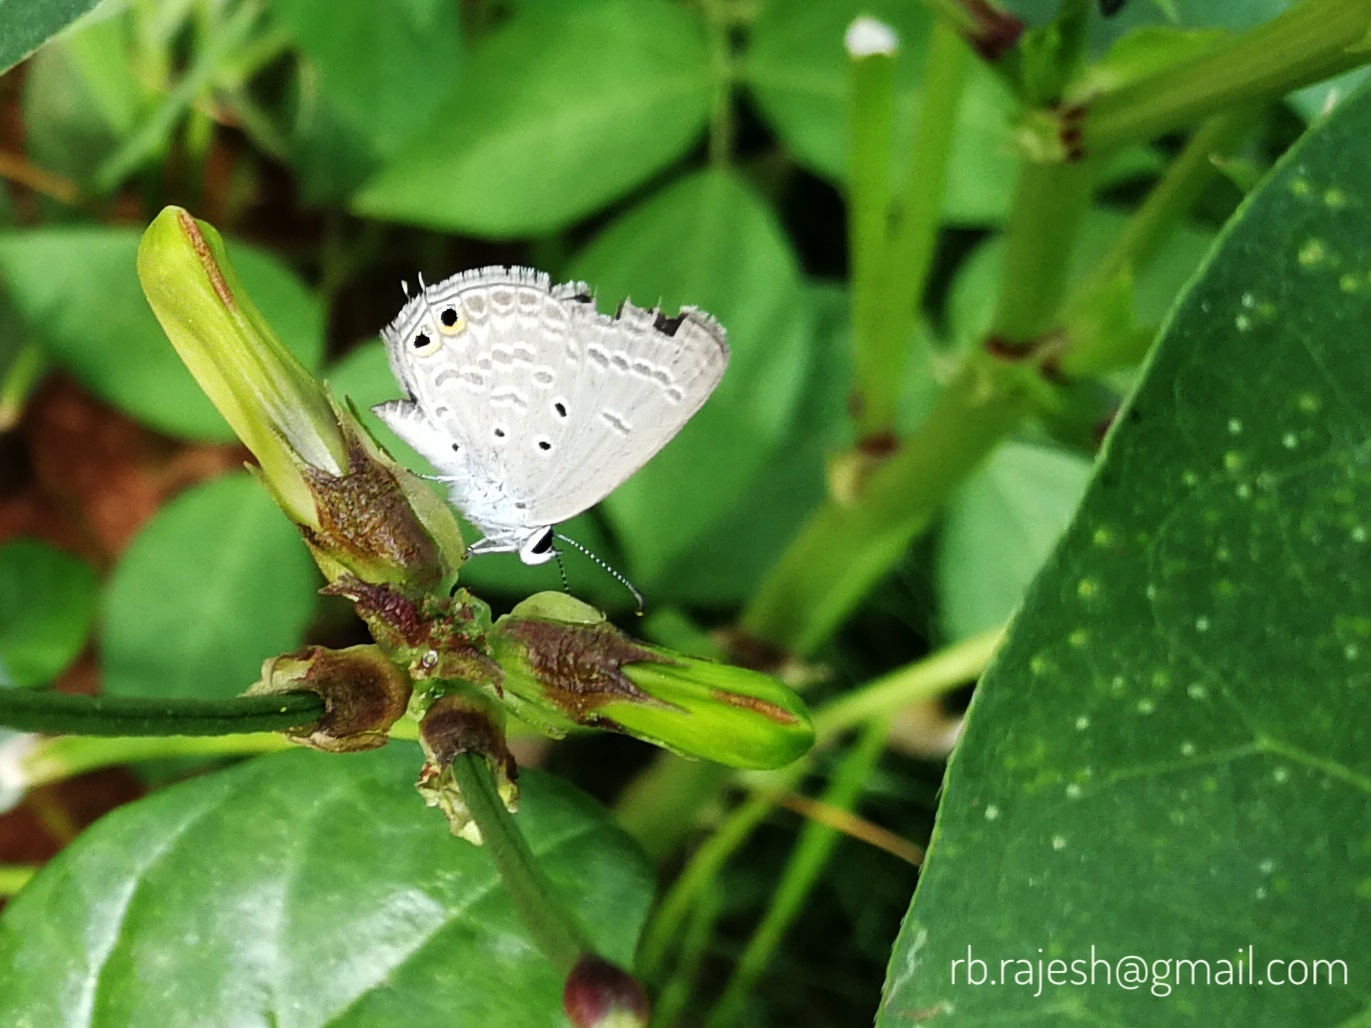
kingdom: Animalia
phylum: Arthropoda
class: Insecta
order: Lepidoptera
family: Lycaenidae
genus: Euchrysops
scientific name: Euchrysops cnejus
